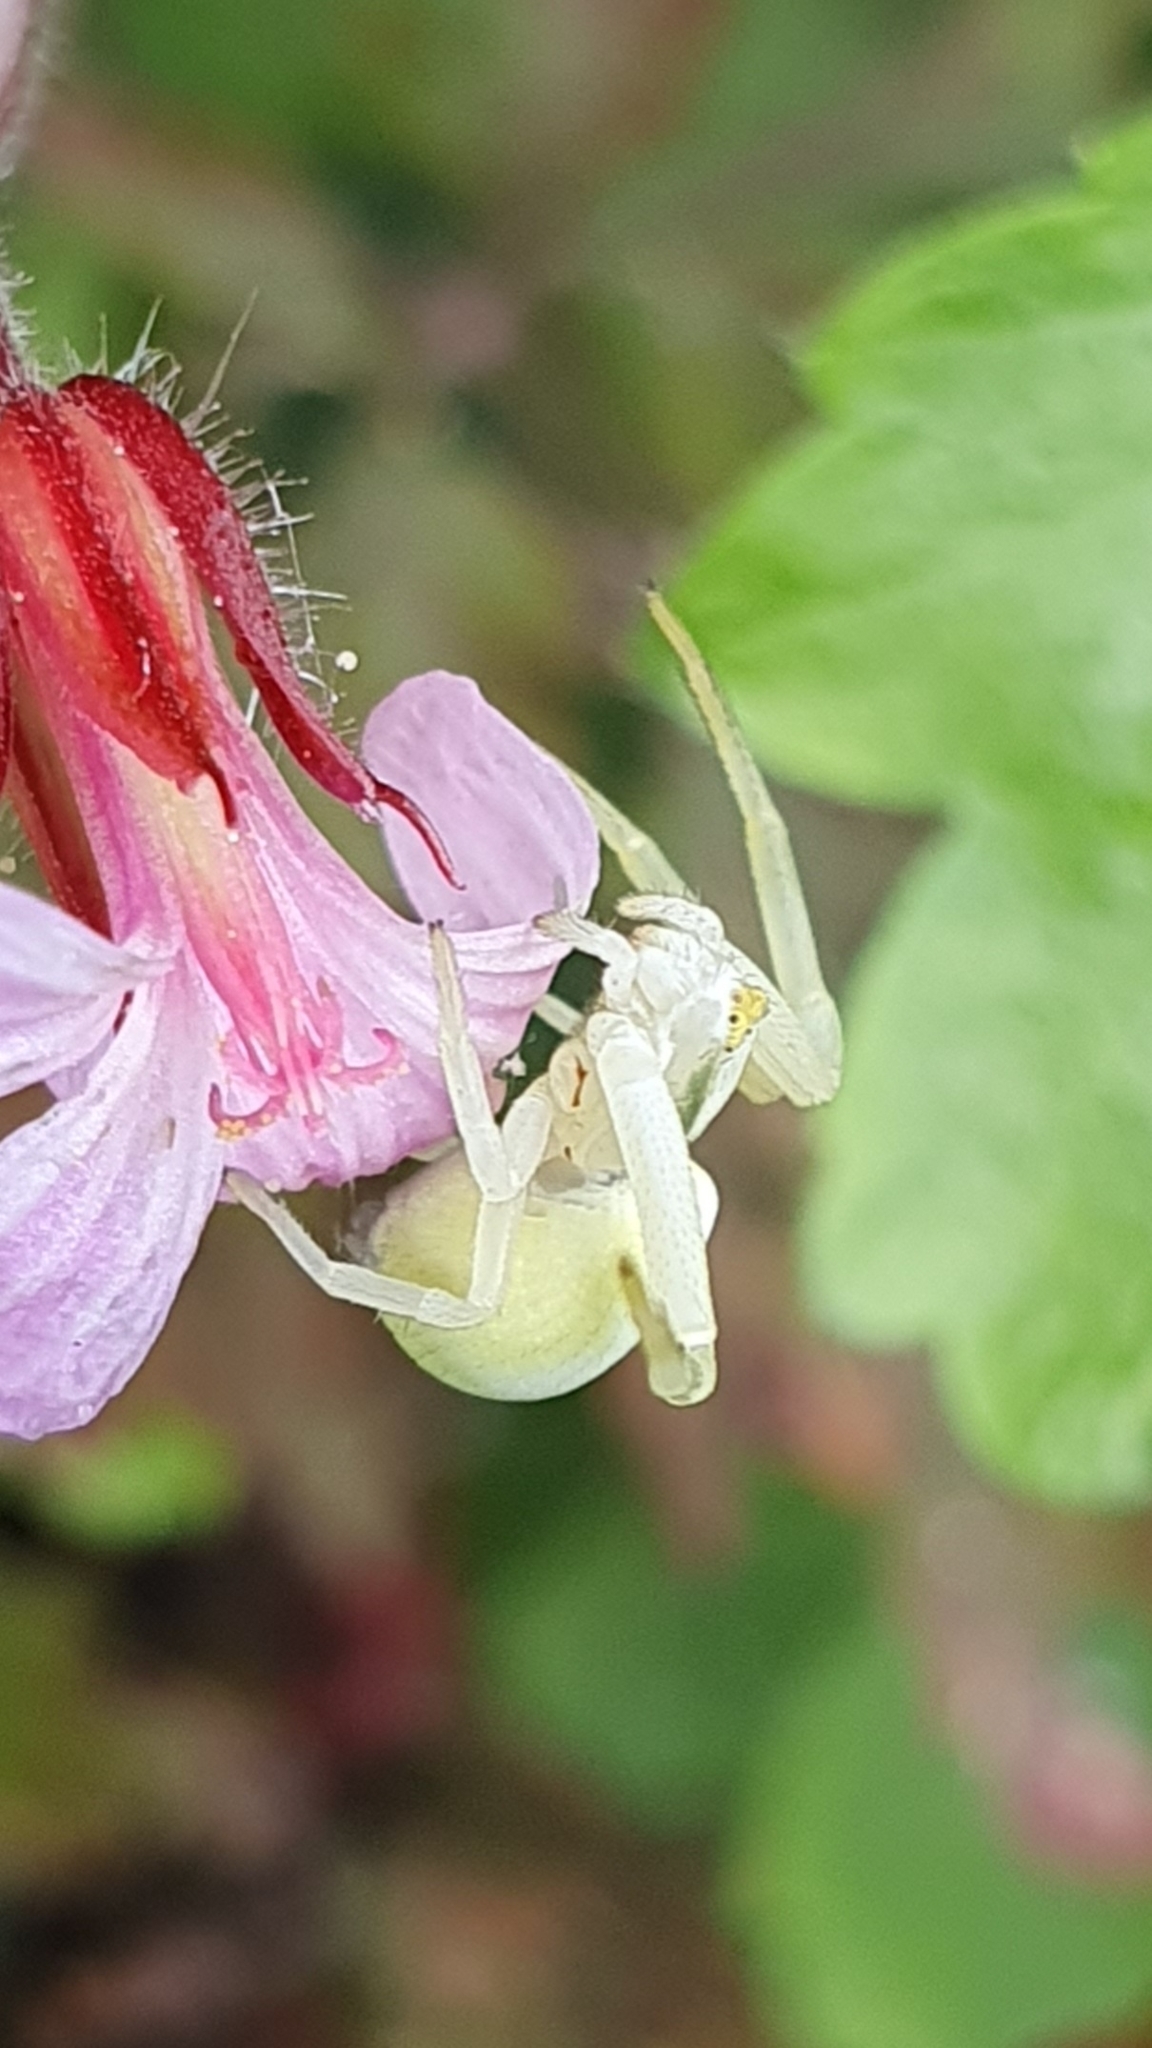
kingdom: Animalia
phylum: Arthropoda
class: Arachnida
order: Araneae
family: Thomisidae
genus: Misumena
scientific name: Misumena vatia
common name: Goldenrod crab spider
